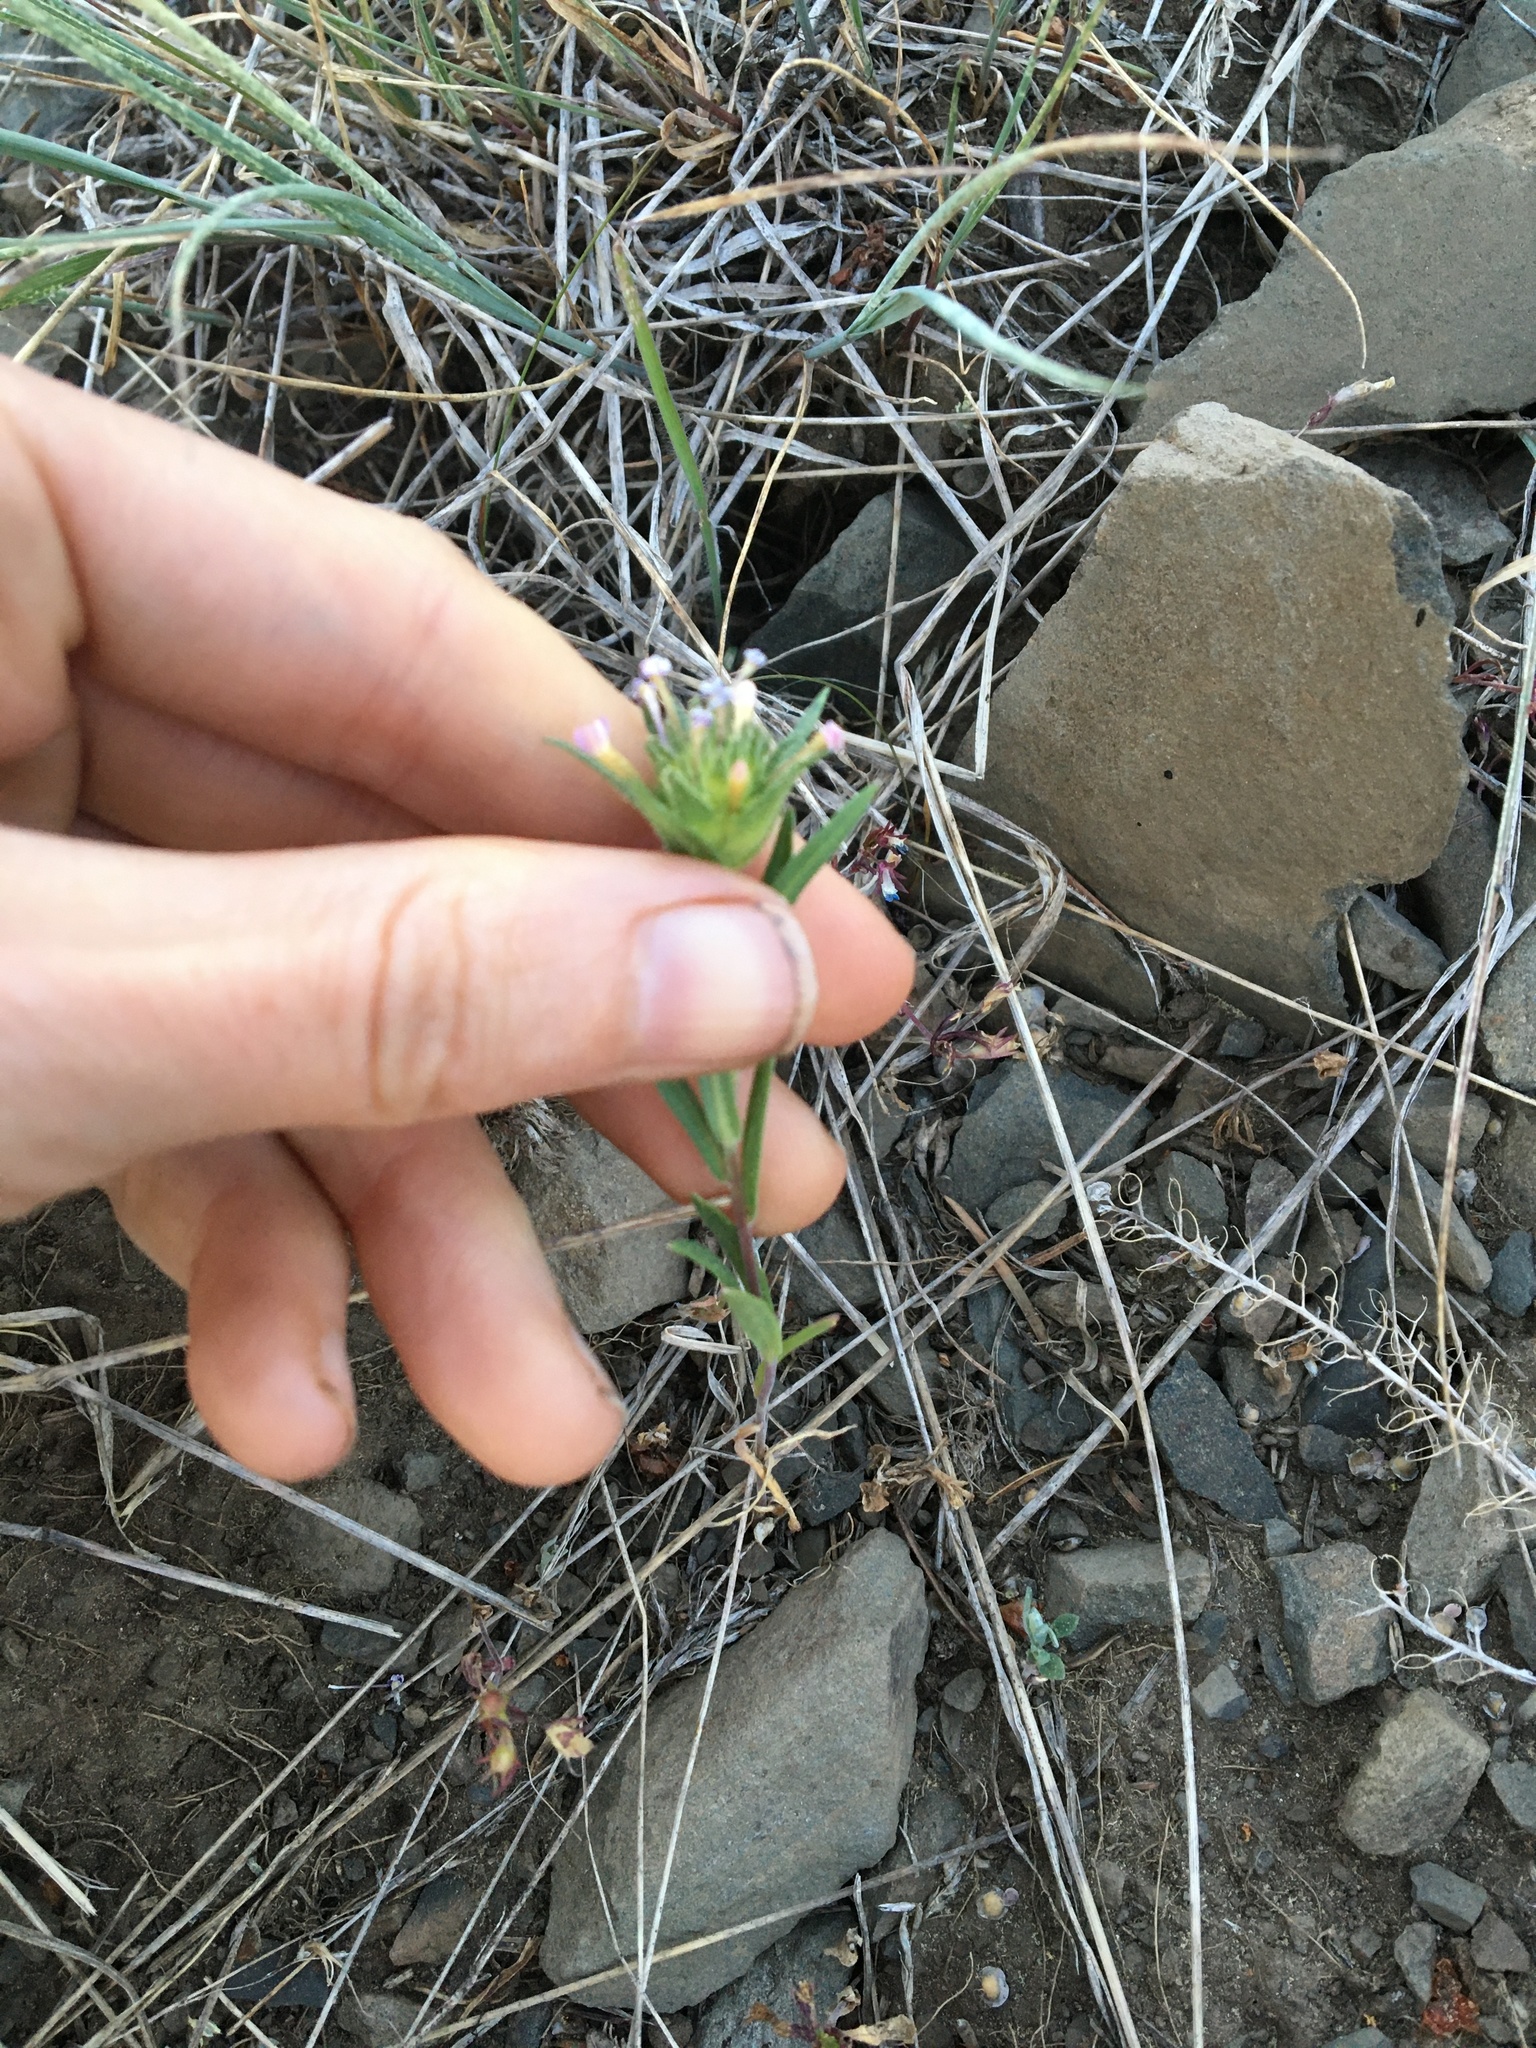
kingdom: Plantae
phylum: Tracheophyta
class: Magnoliopsida
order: Ericales
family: Polemoniaceae
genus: Collomia
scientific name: Collomia linearis
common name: Tiny trumpet
